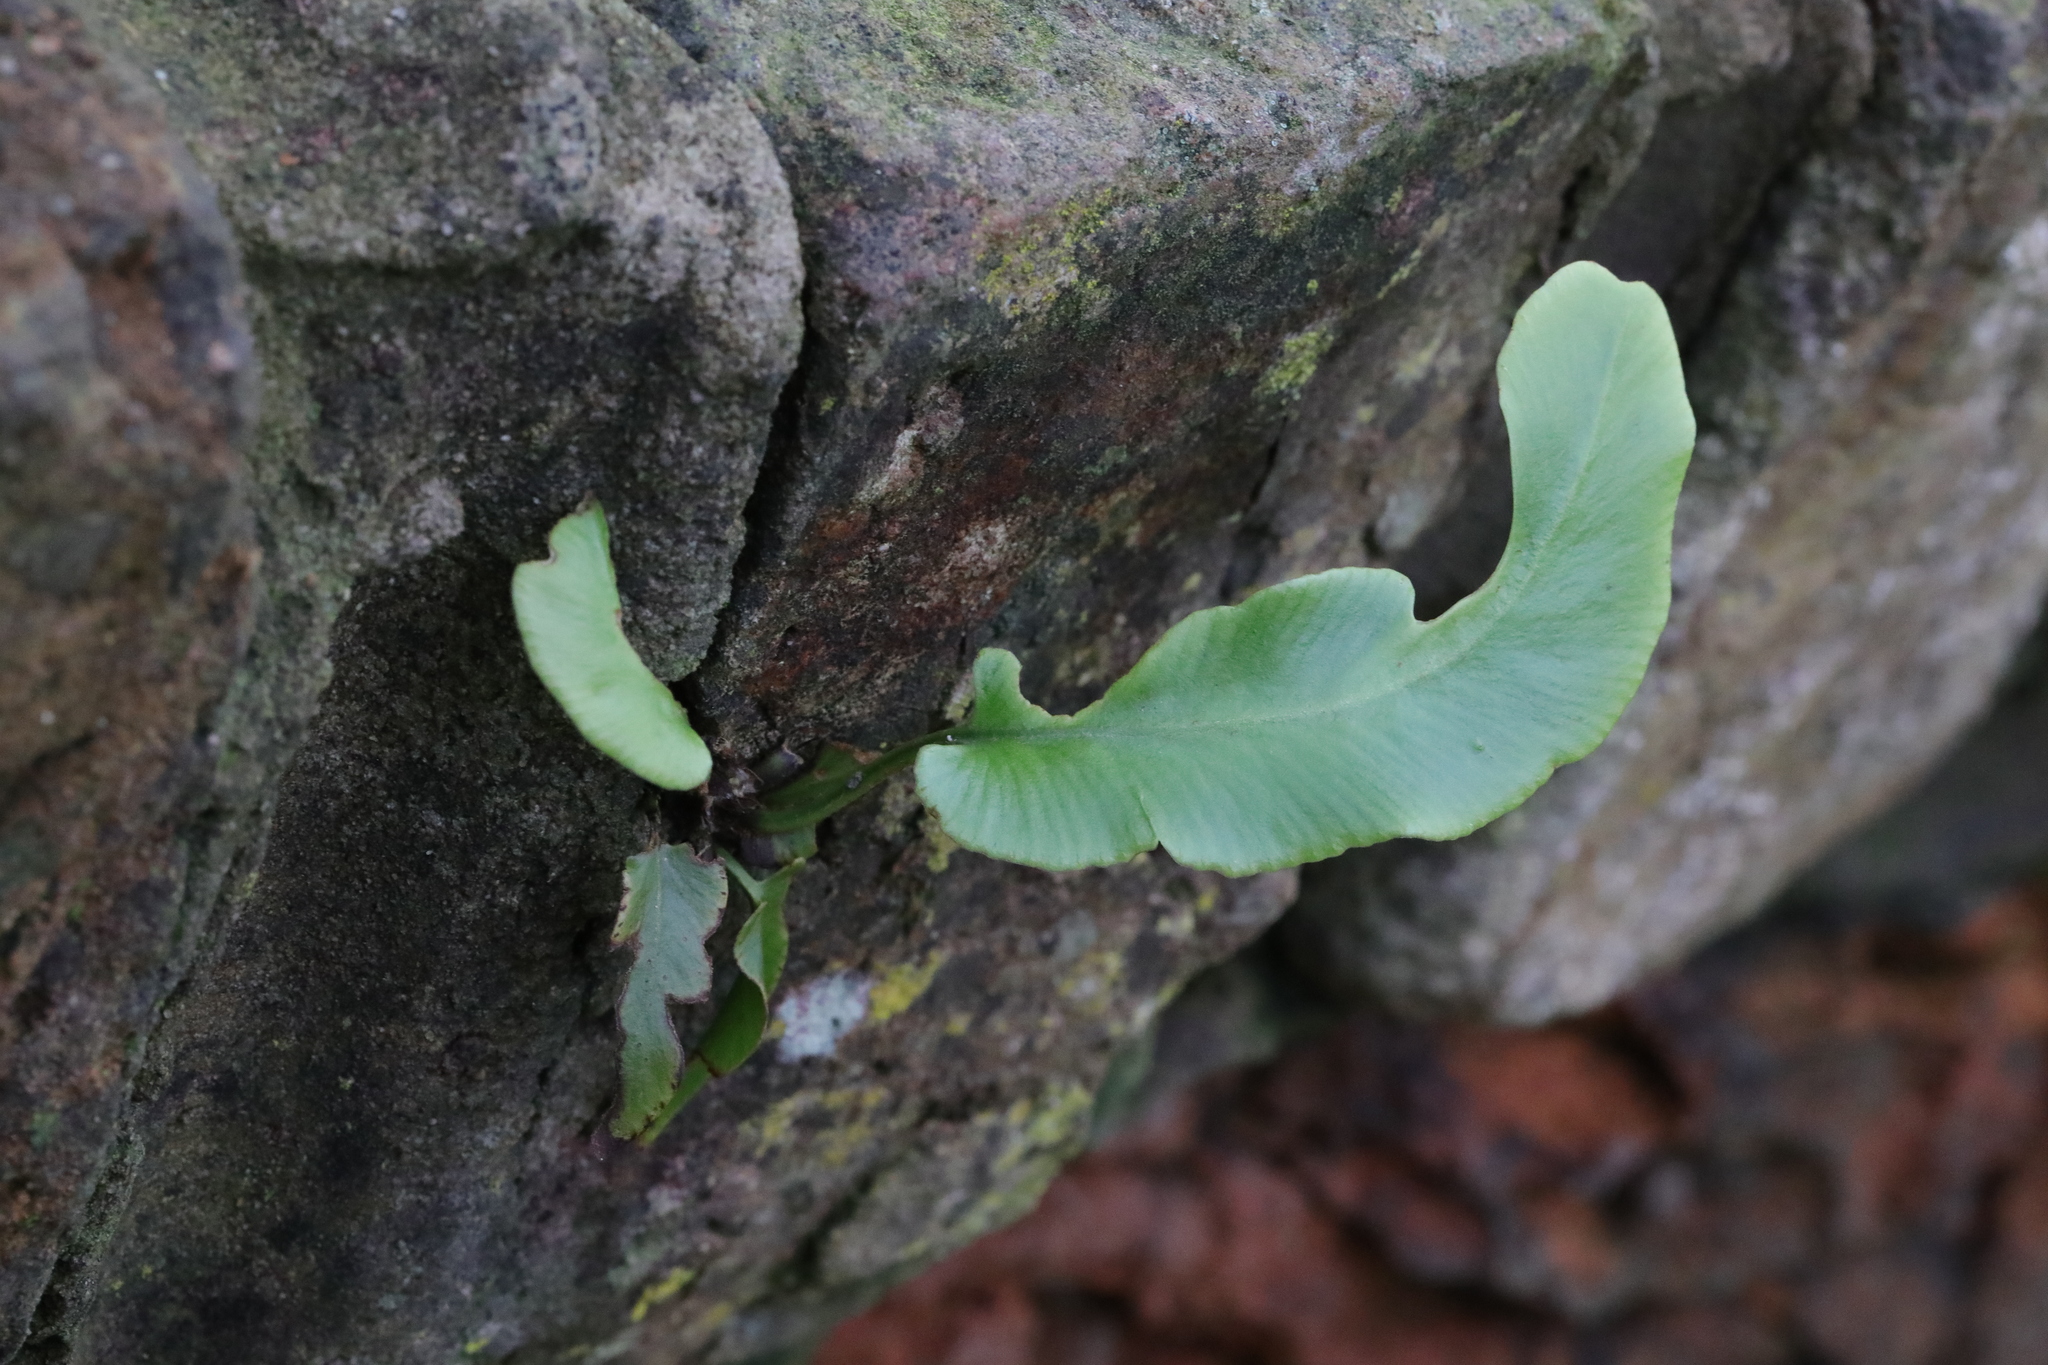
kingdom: Plantae
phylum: Tracheophyta
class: Polypodiopsida
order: Polypodiales
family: Aspleniaceae
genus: Asplenium
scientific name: Asplenium scolopendrium
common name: Hart's-tongue fern
